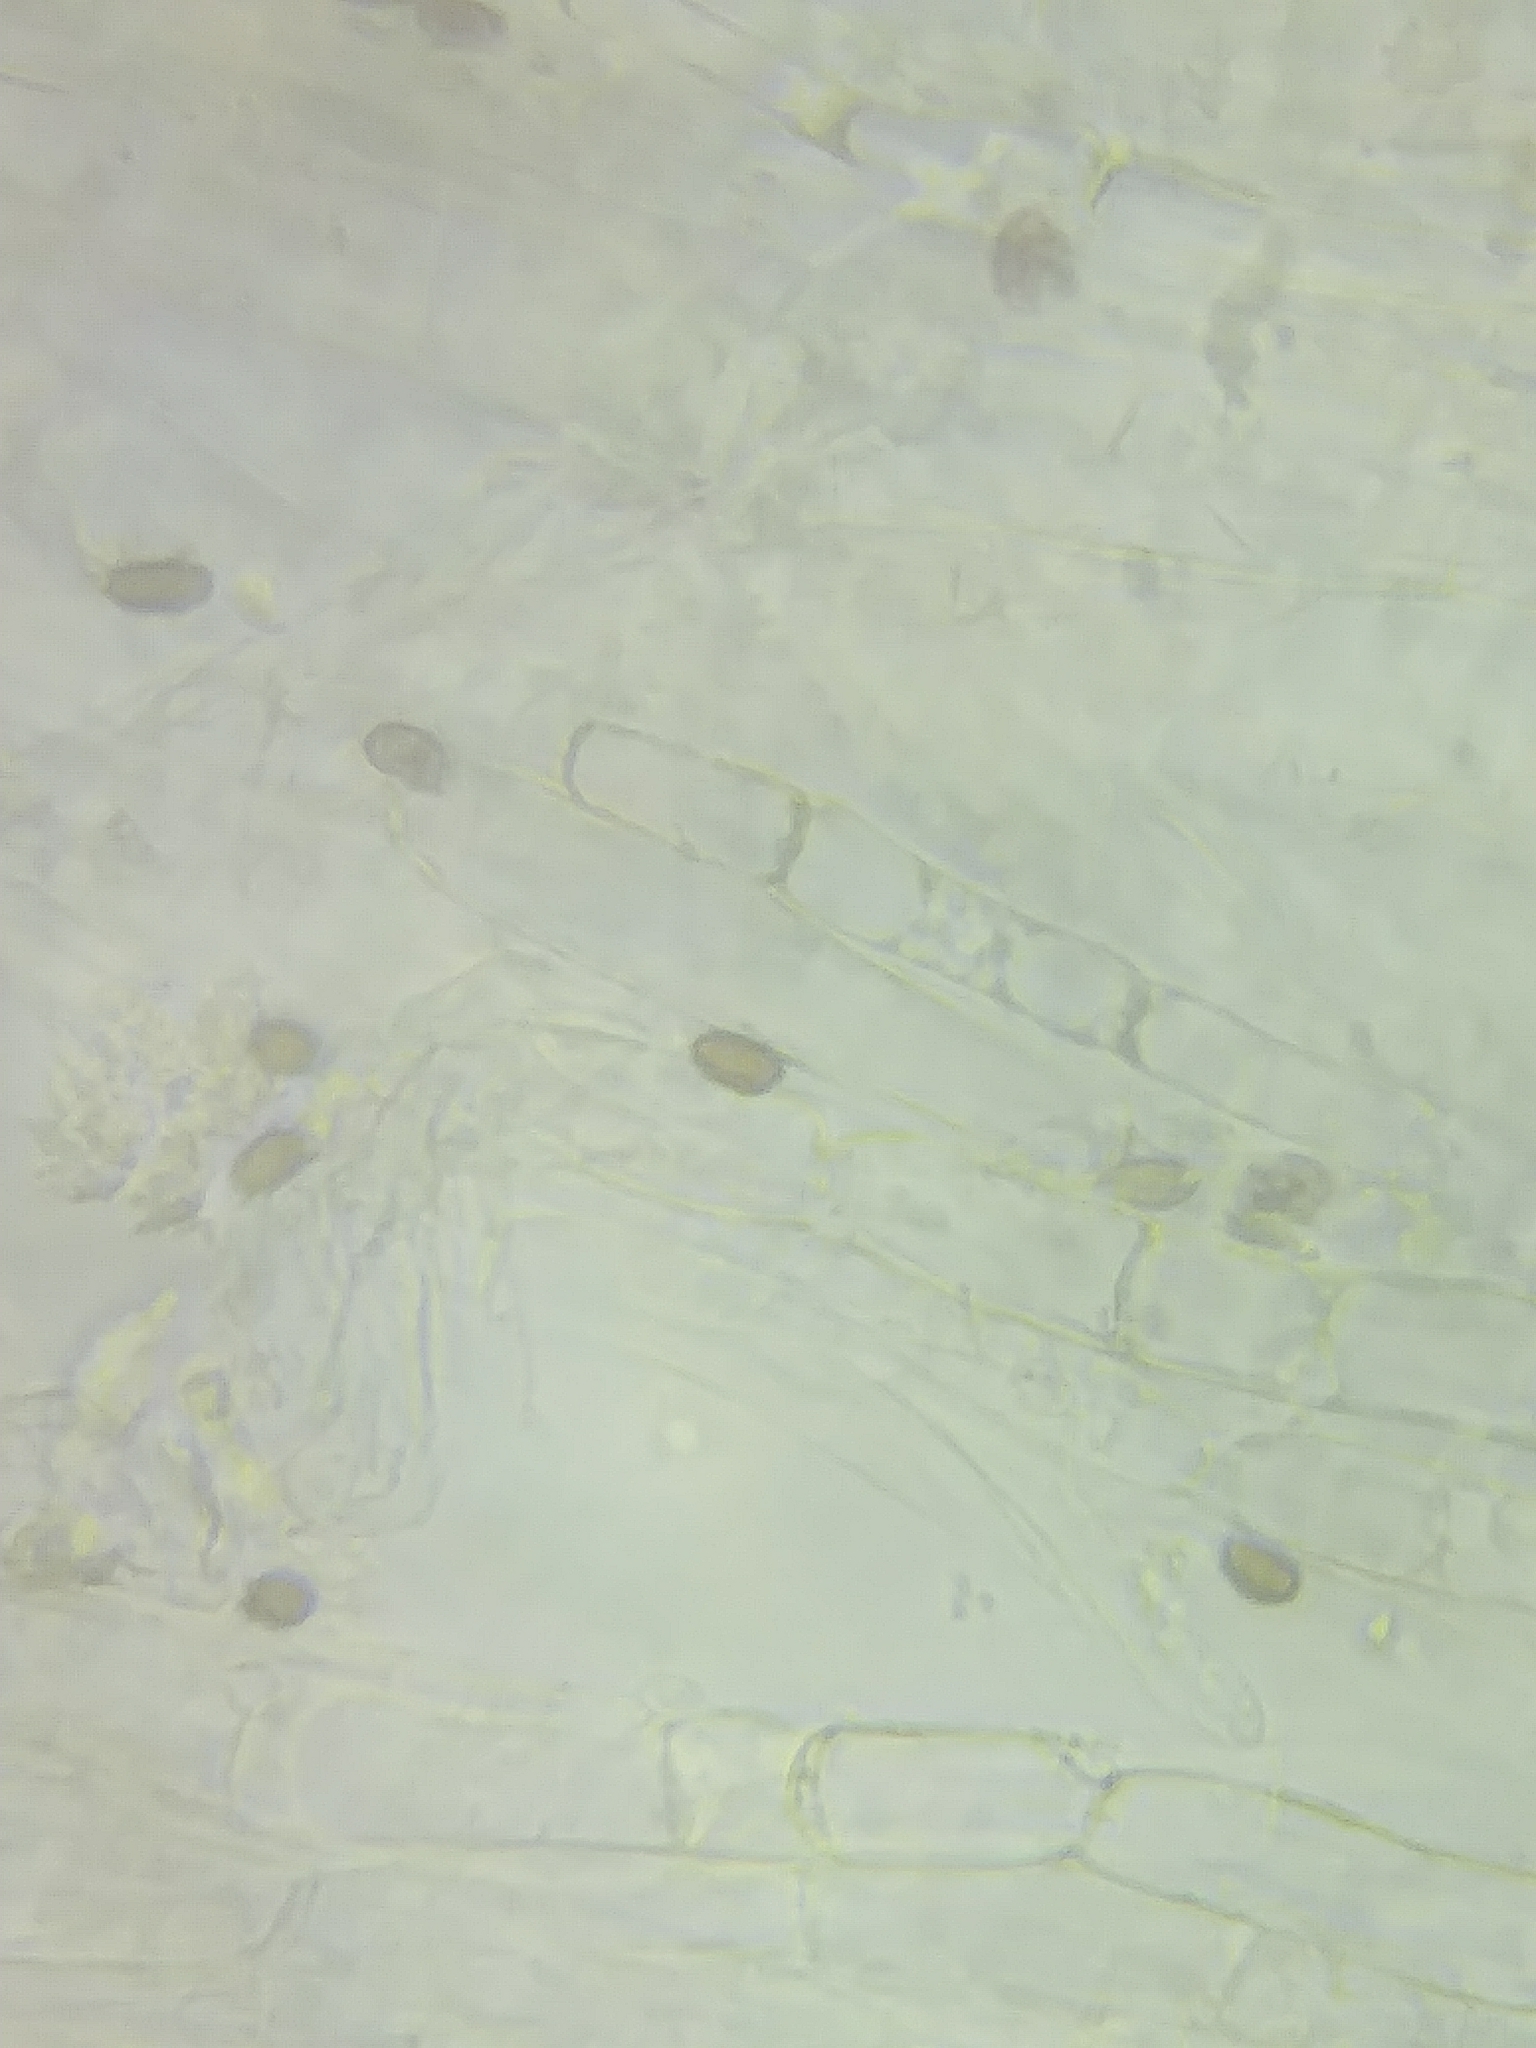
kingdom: Fungi
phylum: Basidiomycota
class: Agaricomycetes
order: Agaricales
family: Psathyrellaceae
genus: Homophron
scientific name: Homophron cernuum
